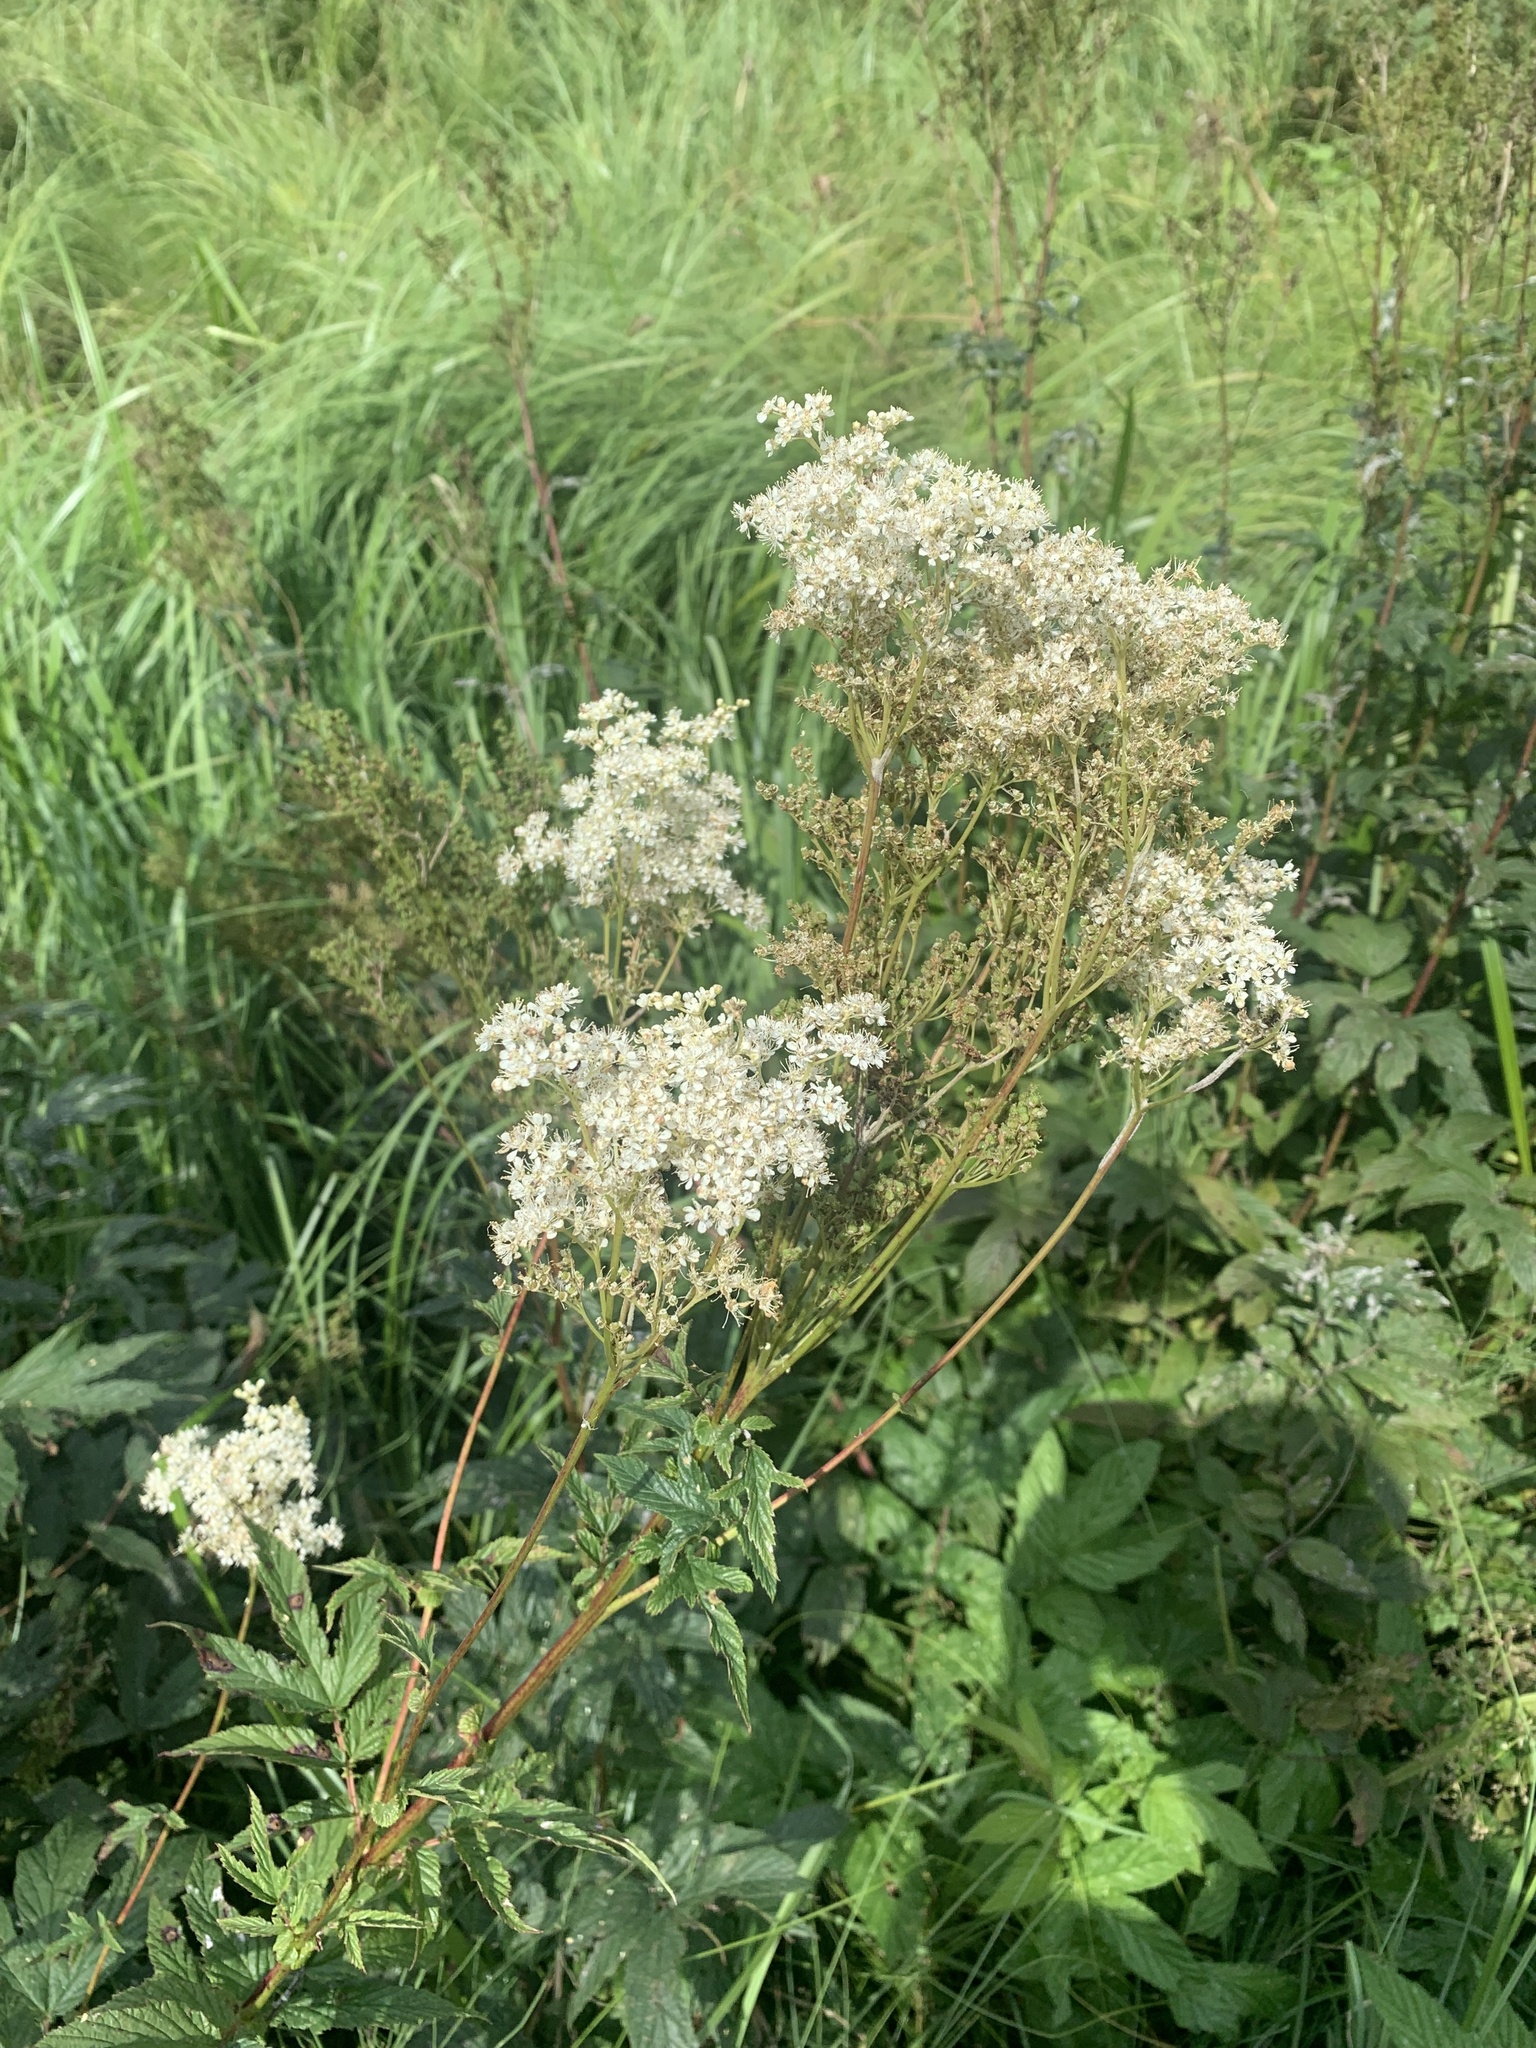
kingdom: Plantae
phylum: Tracheophyta
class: Magnoliopsida
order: Rosales
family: Rosaceae
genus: Filipendula
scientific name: Filipendula ulmaria
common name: Meadowsweet
